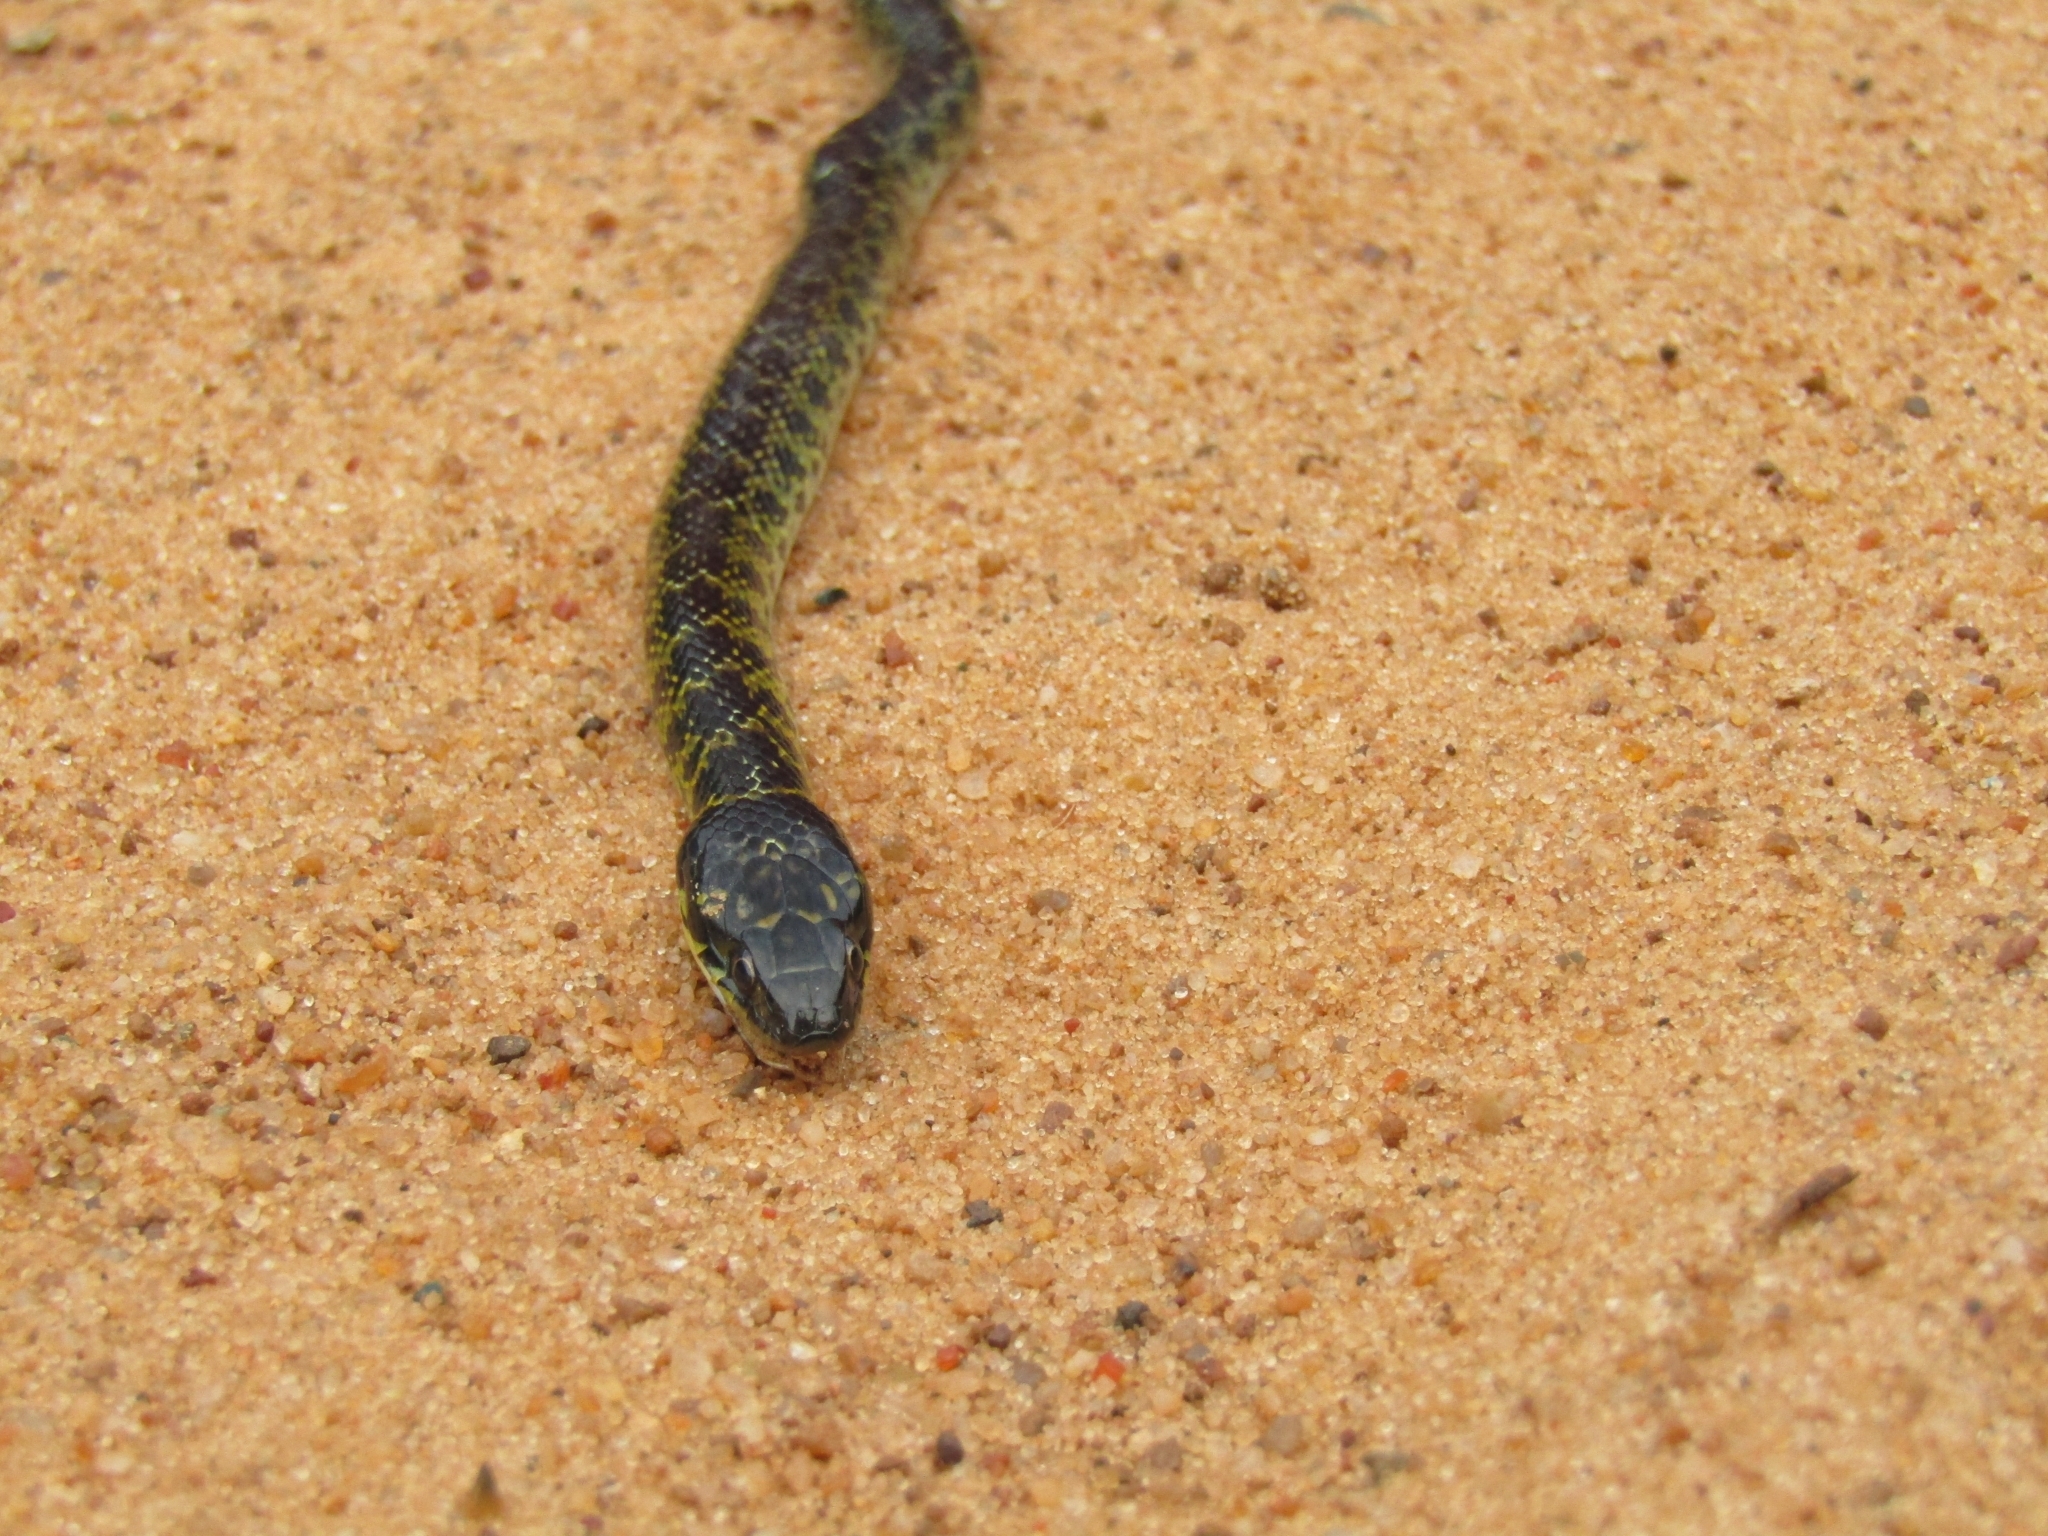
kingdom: Animalia
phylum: Chordata
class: Squamata
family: Colubridae
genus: Erythrolamprus
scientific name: Erythrolamprus poecilogyrus
